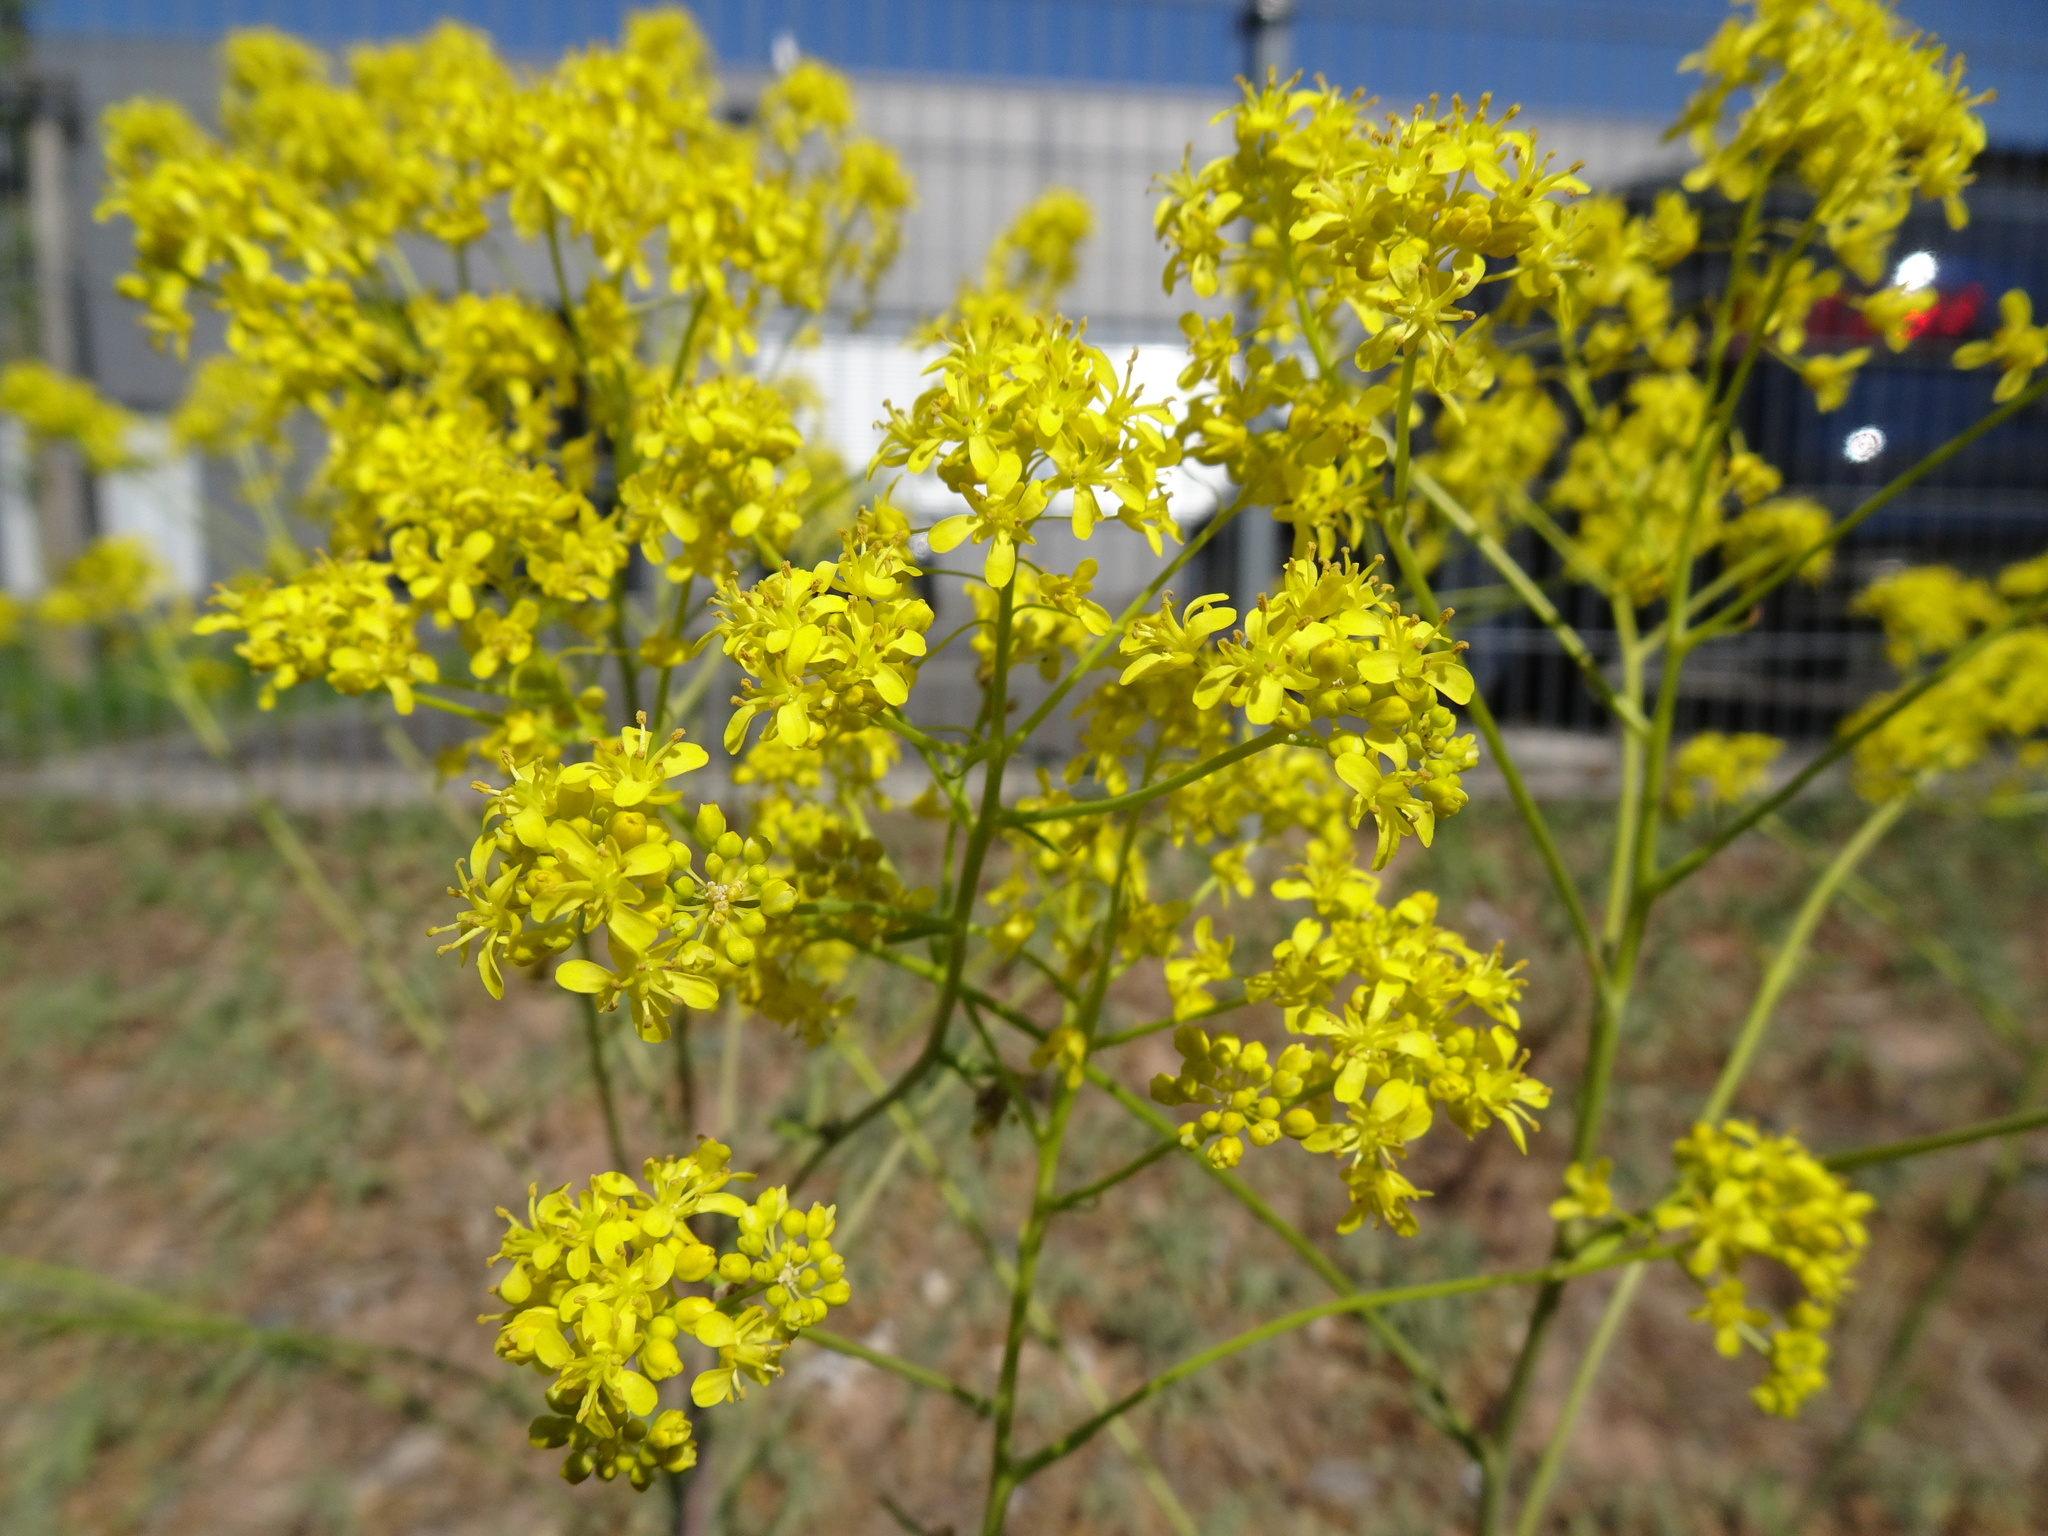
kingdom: Plantae
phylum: Tracheophyta
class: Magnoliopsida
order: Brassicales
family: Brassicaceae
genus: Isatis
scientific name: Isatis tinctoria
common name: Woad
